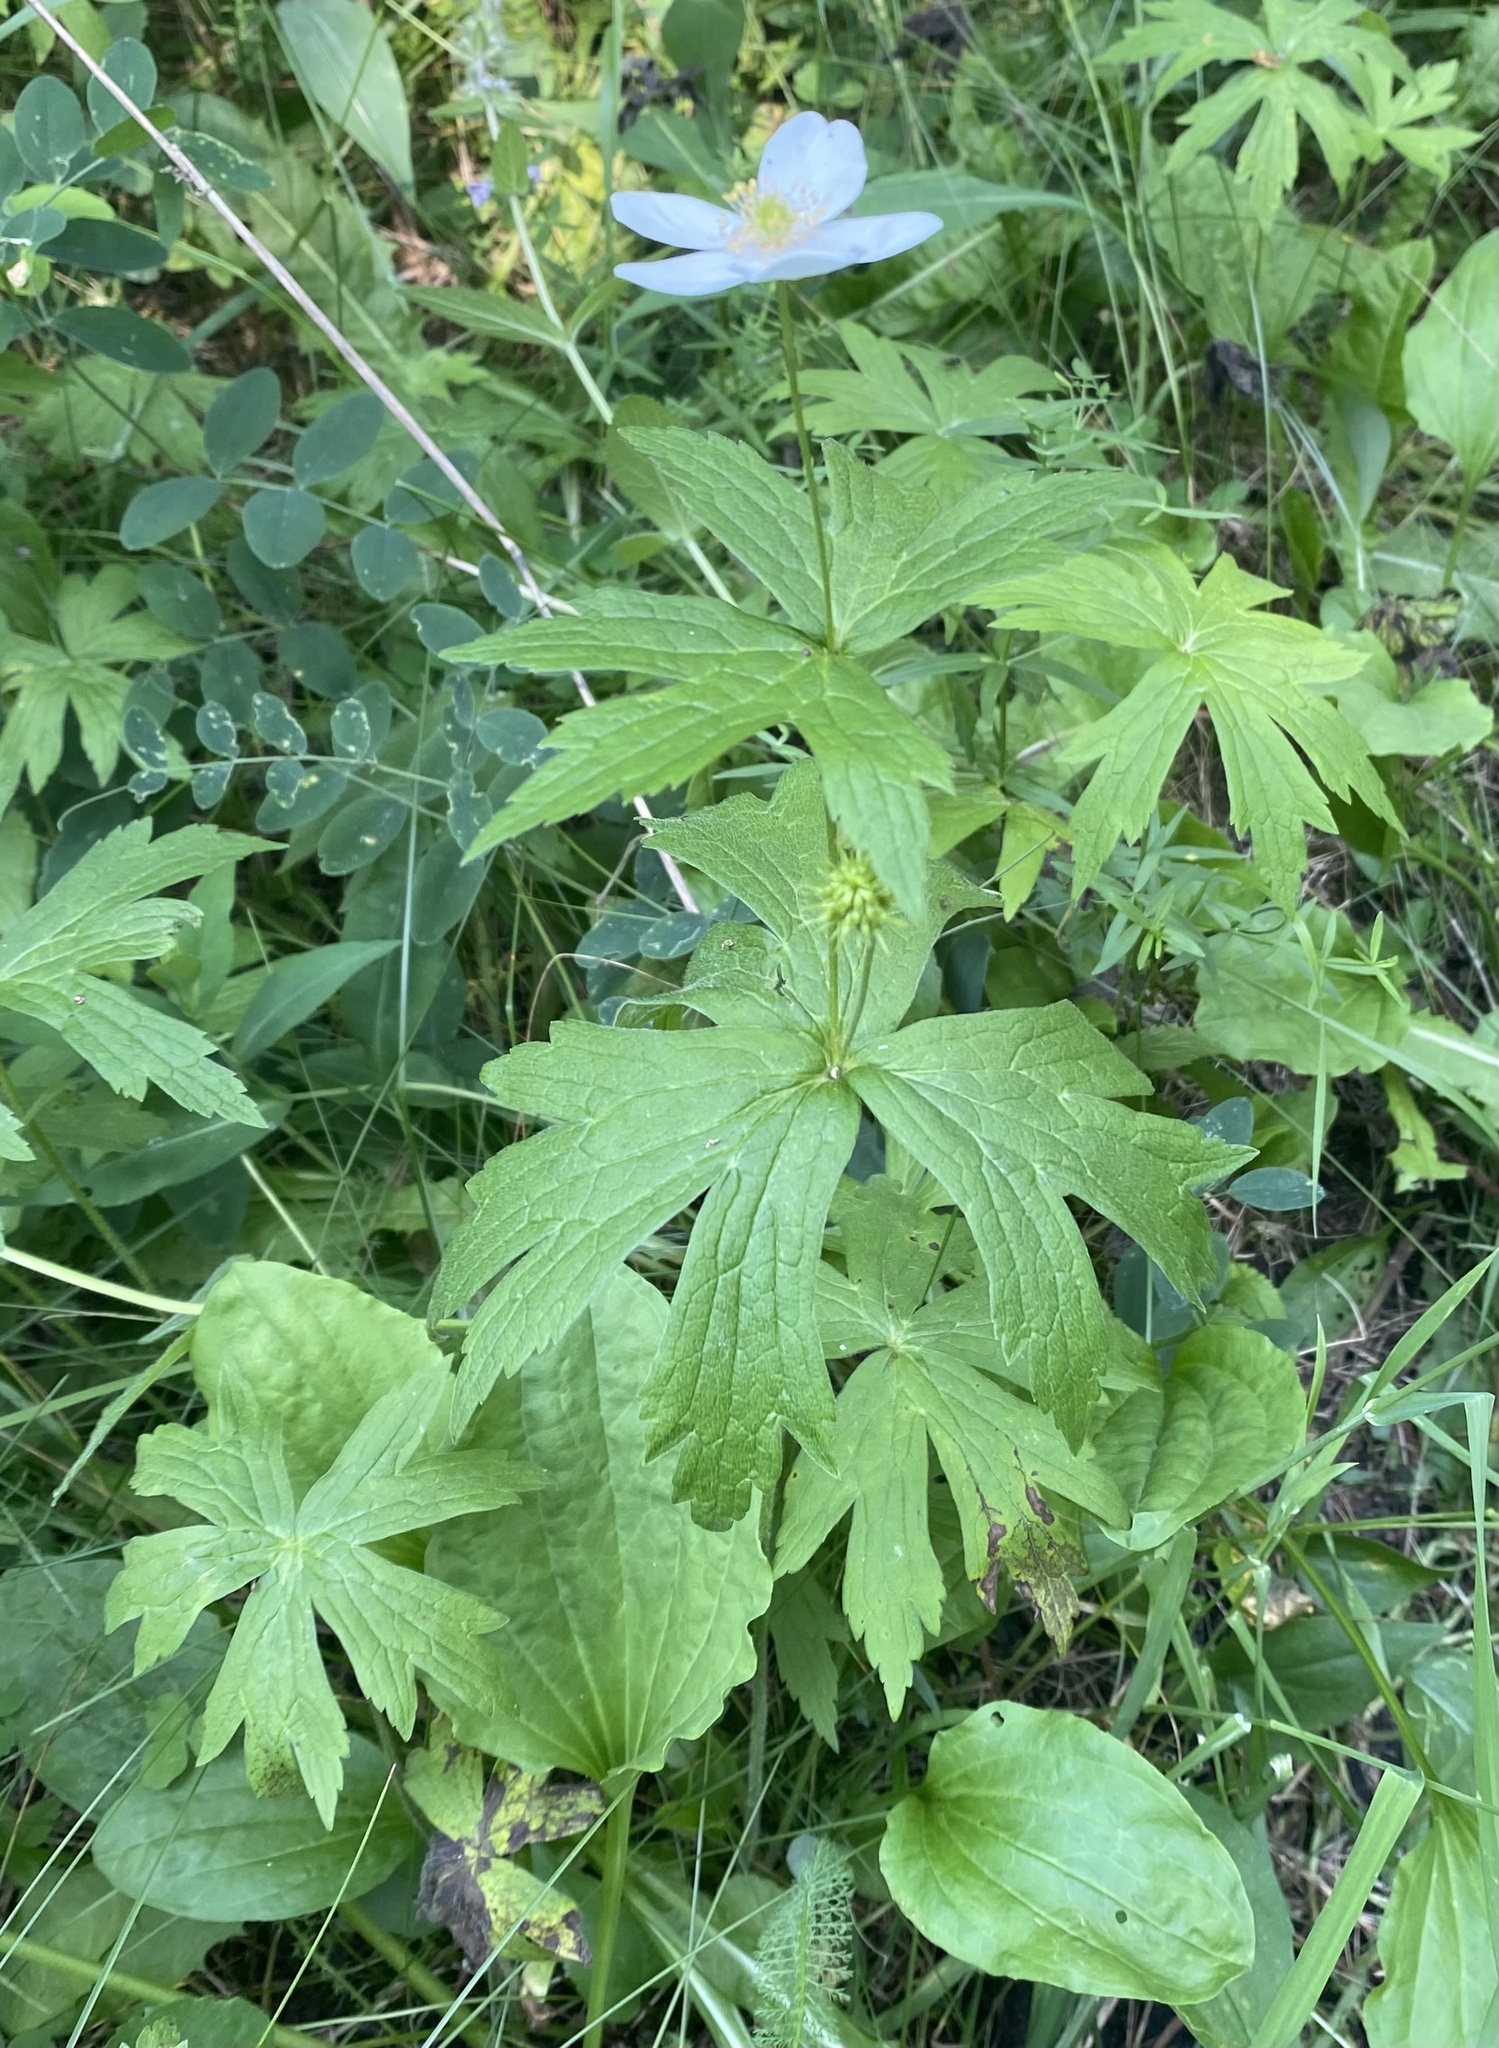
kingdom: Plantae
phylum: Tracheophyta
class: Magnoliopsida
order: Ranunculales
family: Ranunculaceae
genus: Anemonastrum
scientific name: Anemonastrum canadense
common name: Canada anemone
